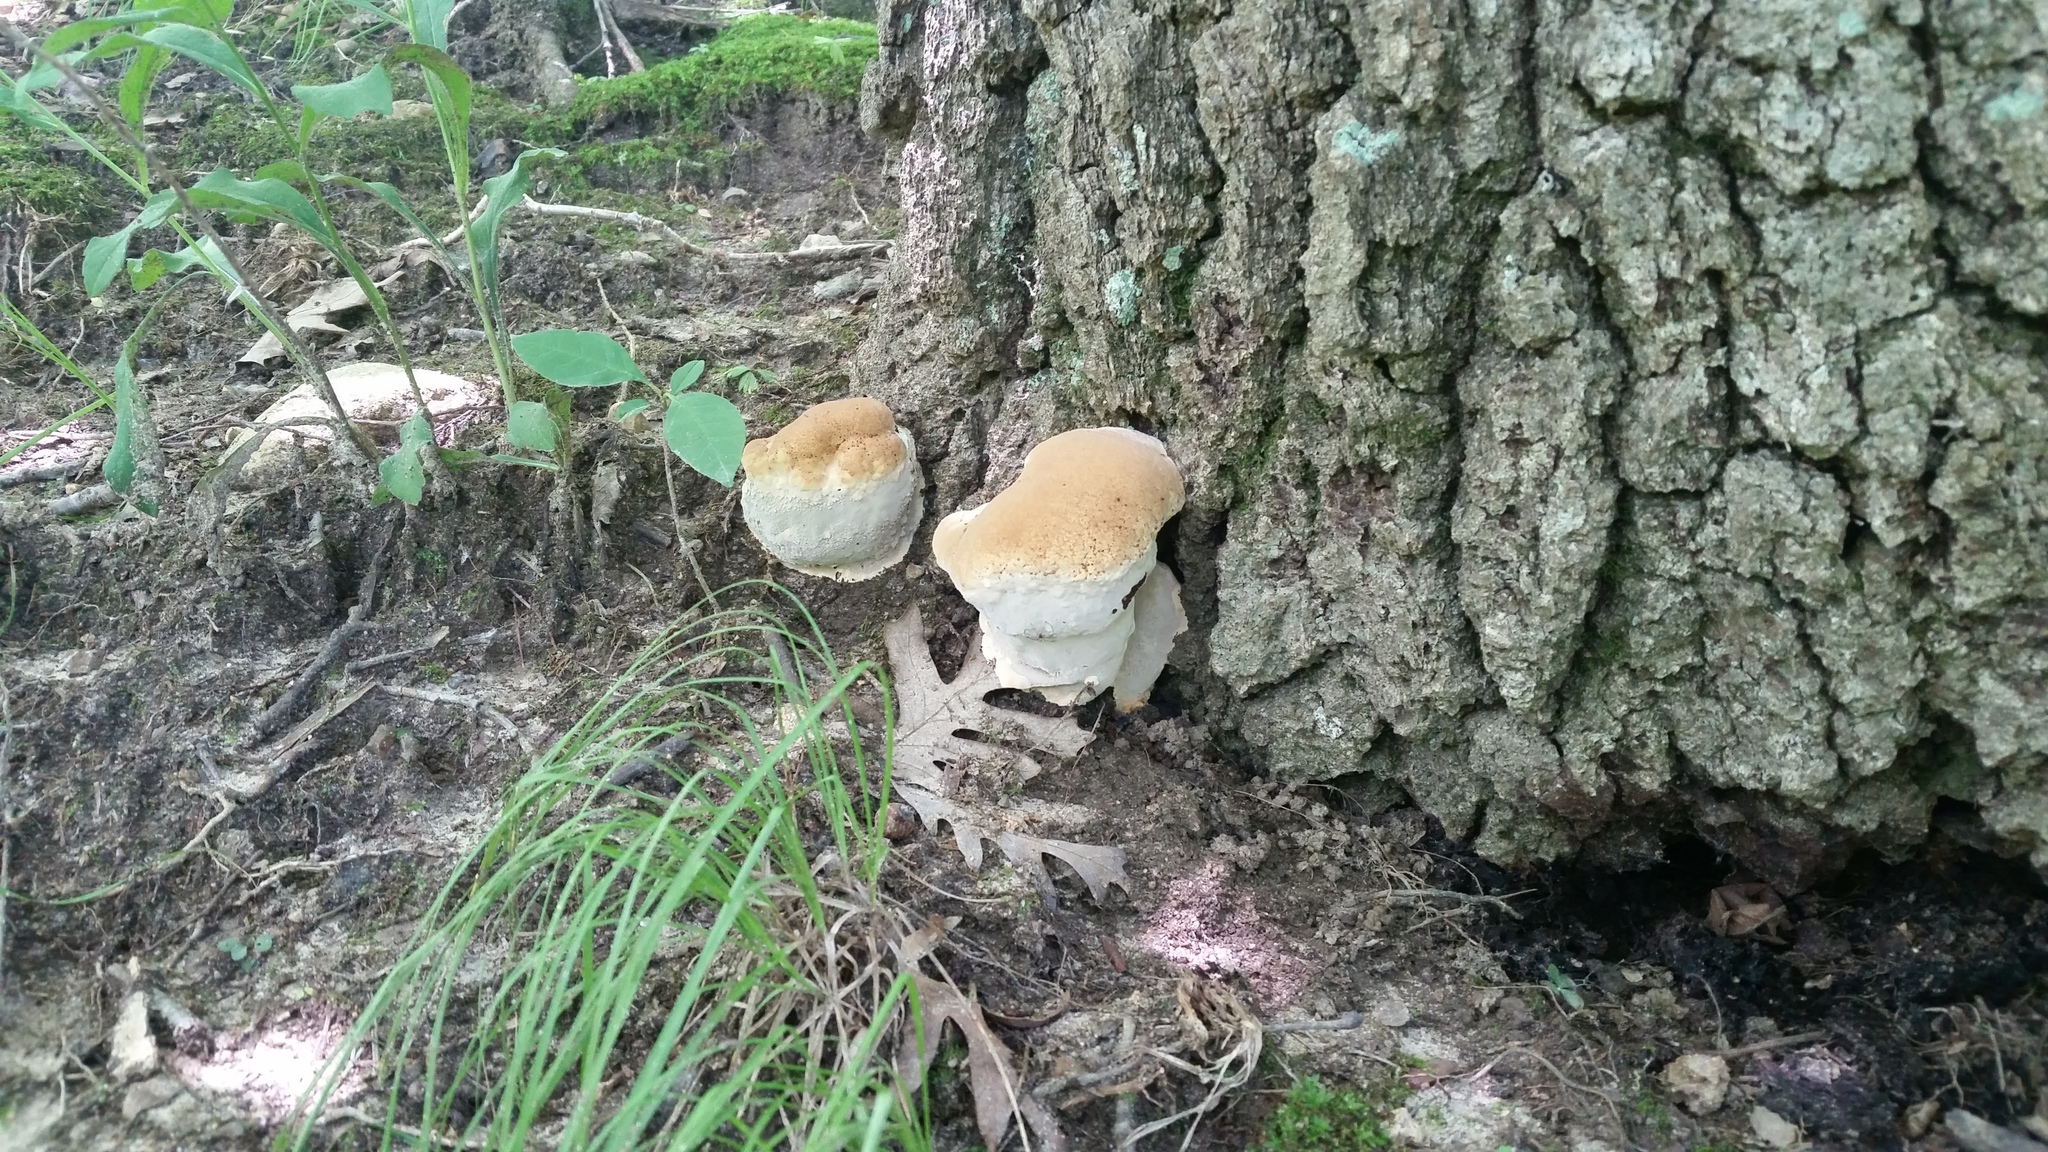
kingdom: Fungi
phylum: Basidiomycota
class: Agaricomycetes
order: Hymenochaetales
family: Hymenochaetaceae
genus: Pseudoinonotus
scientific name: Pseudoinonotus dryadeus
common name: Oak bracket
